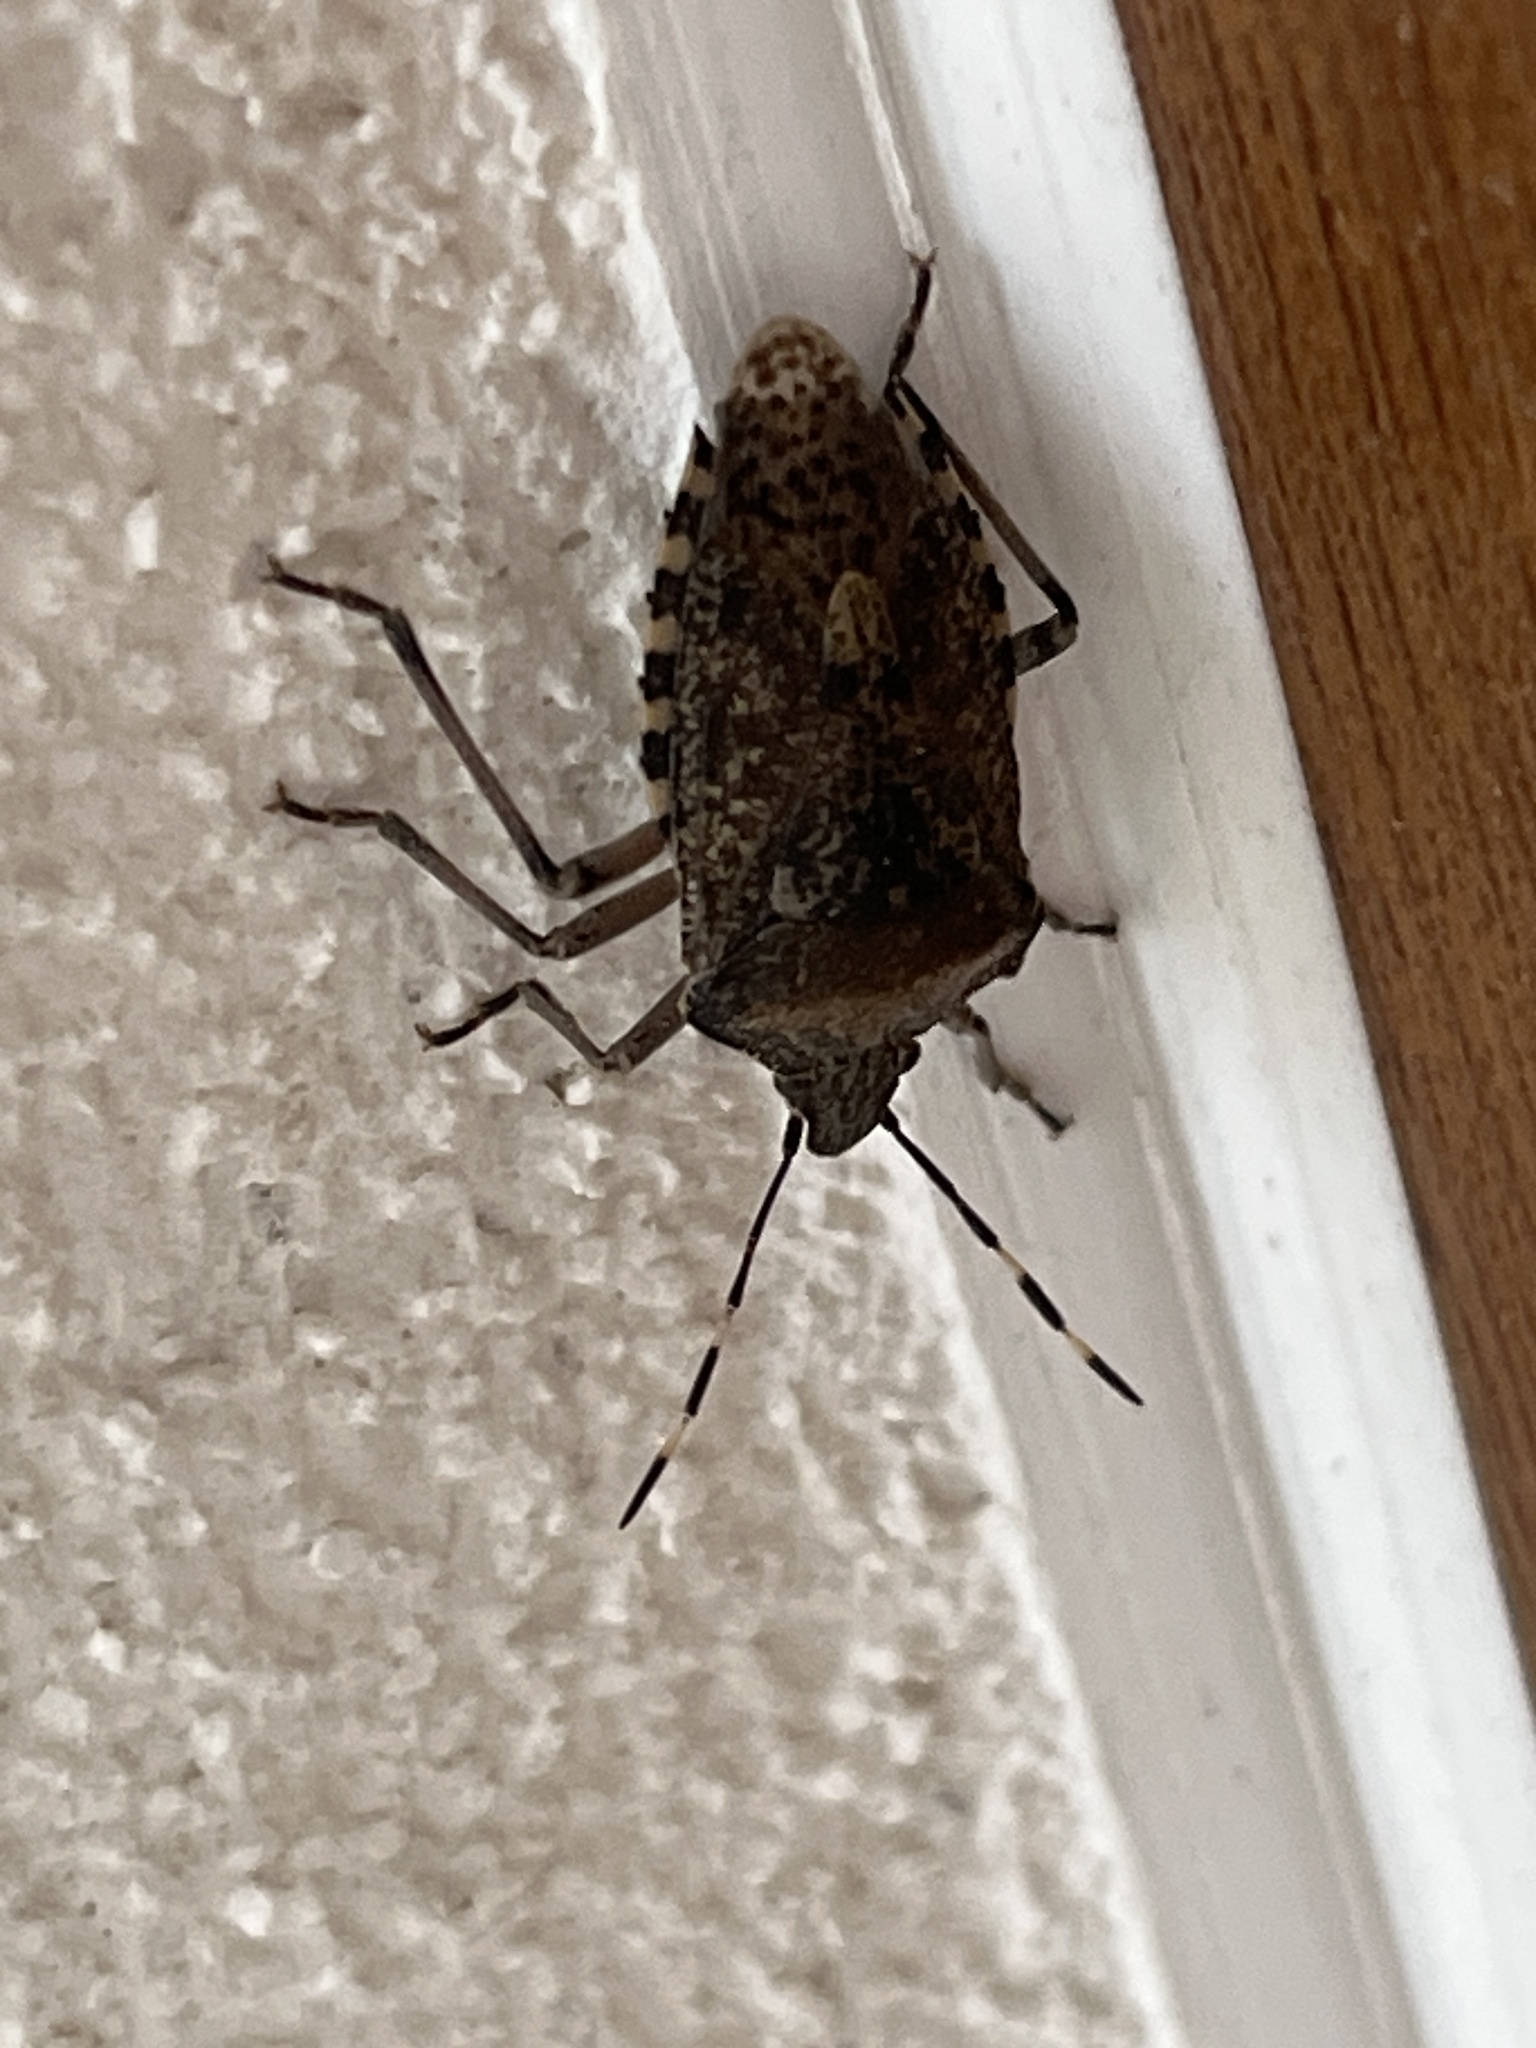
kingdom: Animalia
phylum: Arthropoda
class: Insecta
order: Hemiptera
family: Pentatomidae
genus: Rhaphigaster
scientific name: Rhaphigaster nebulosa
